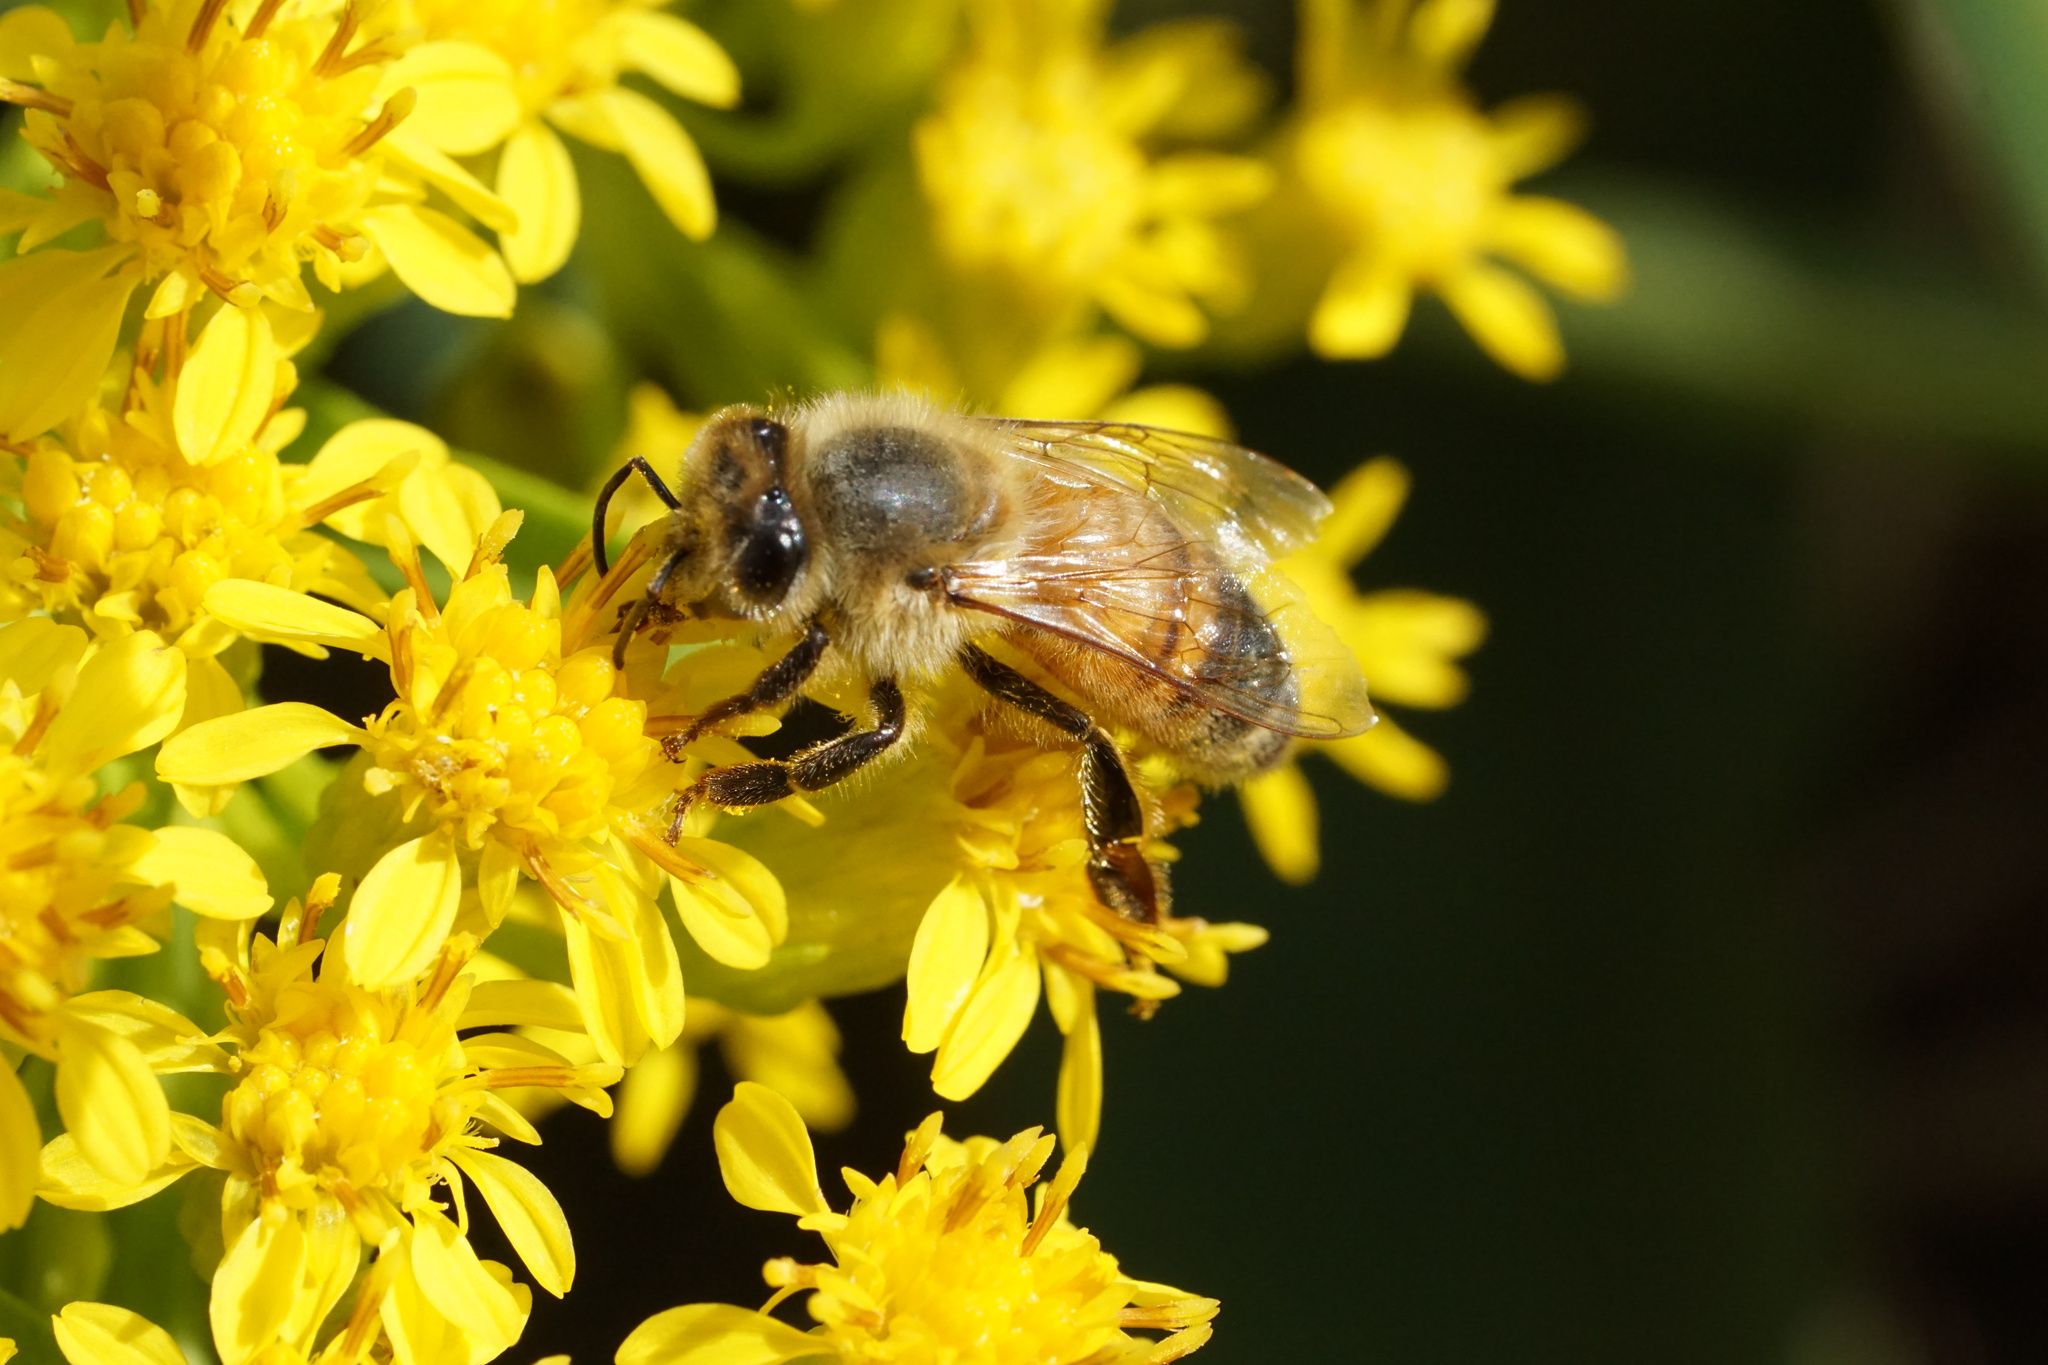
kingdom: Animalia
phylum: Arthropoda
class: Insecta
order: Hymenoptera
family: Apidae
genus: Apis
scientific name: Apis mellifera
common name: Honey bee
